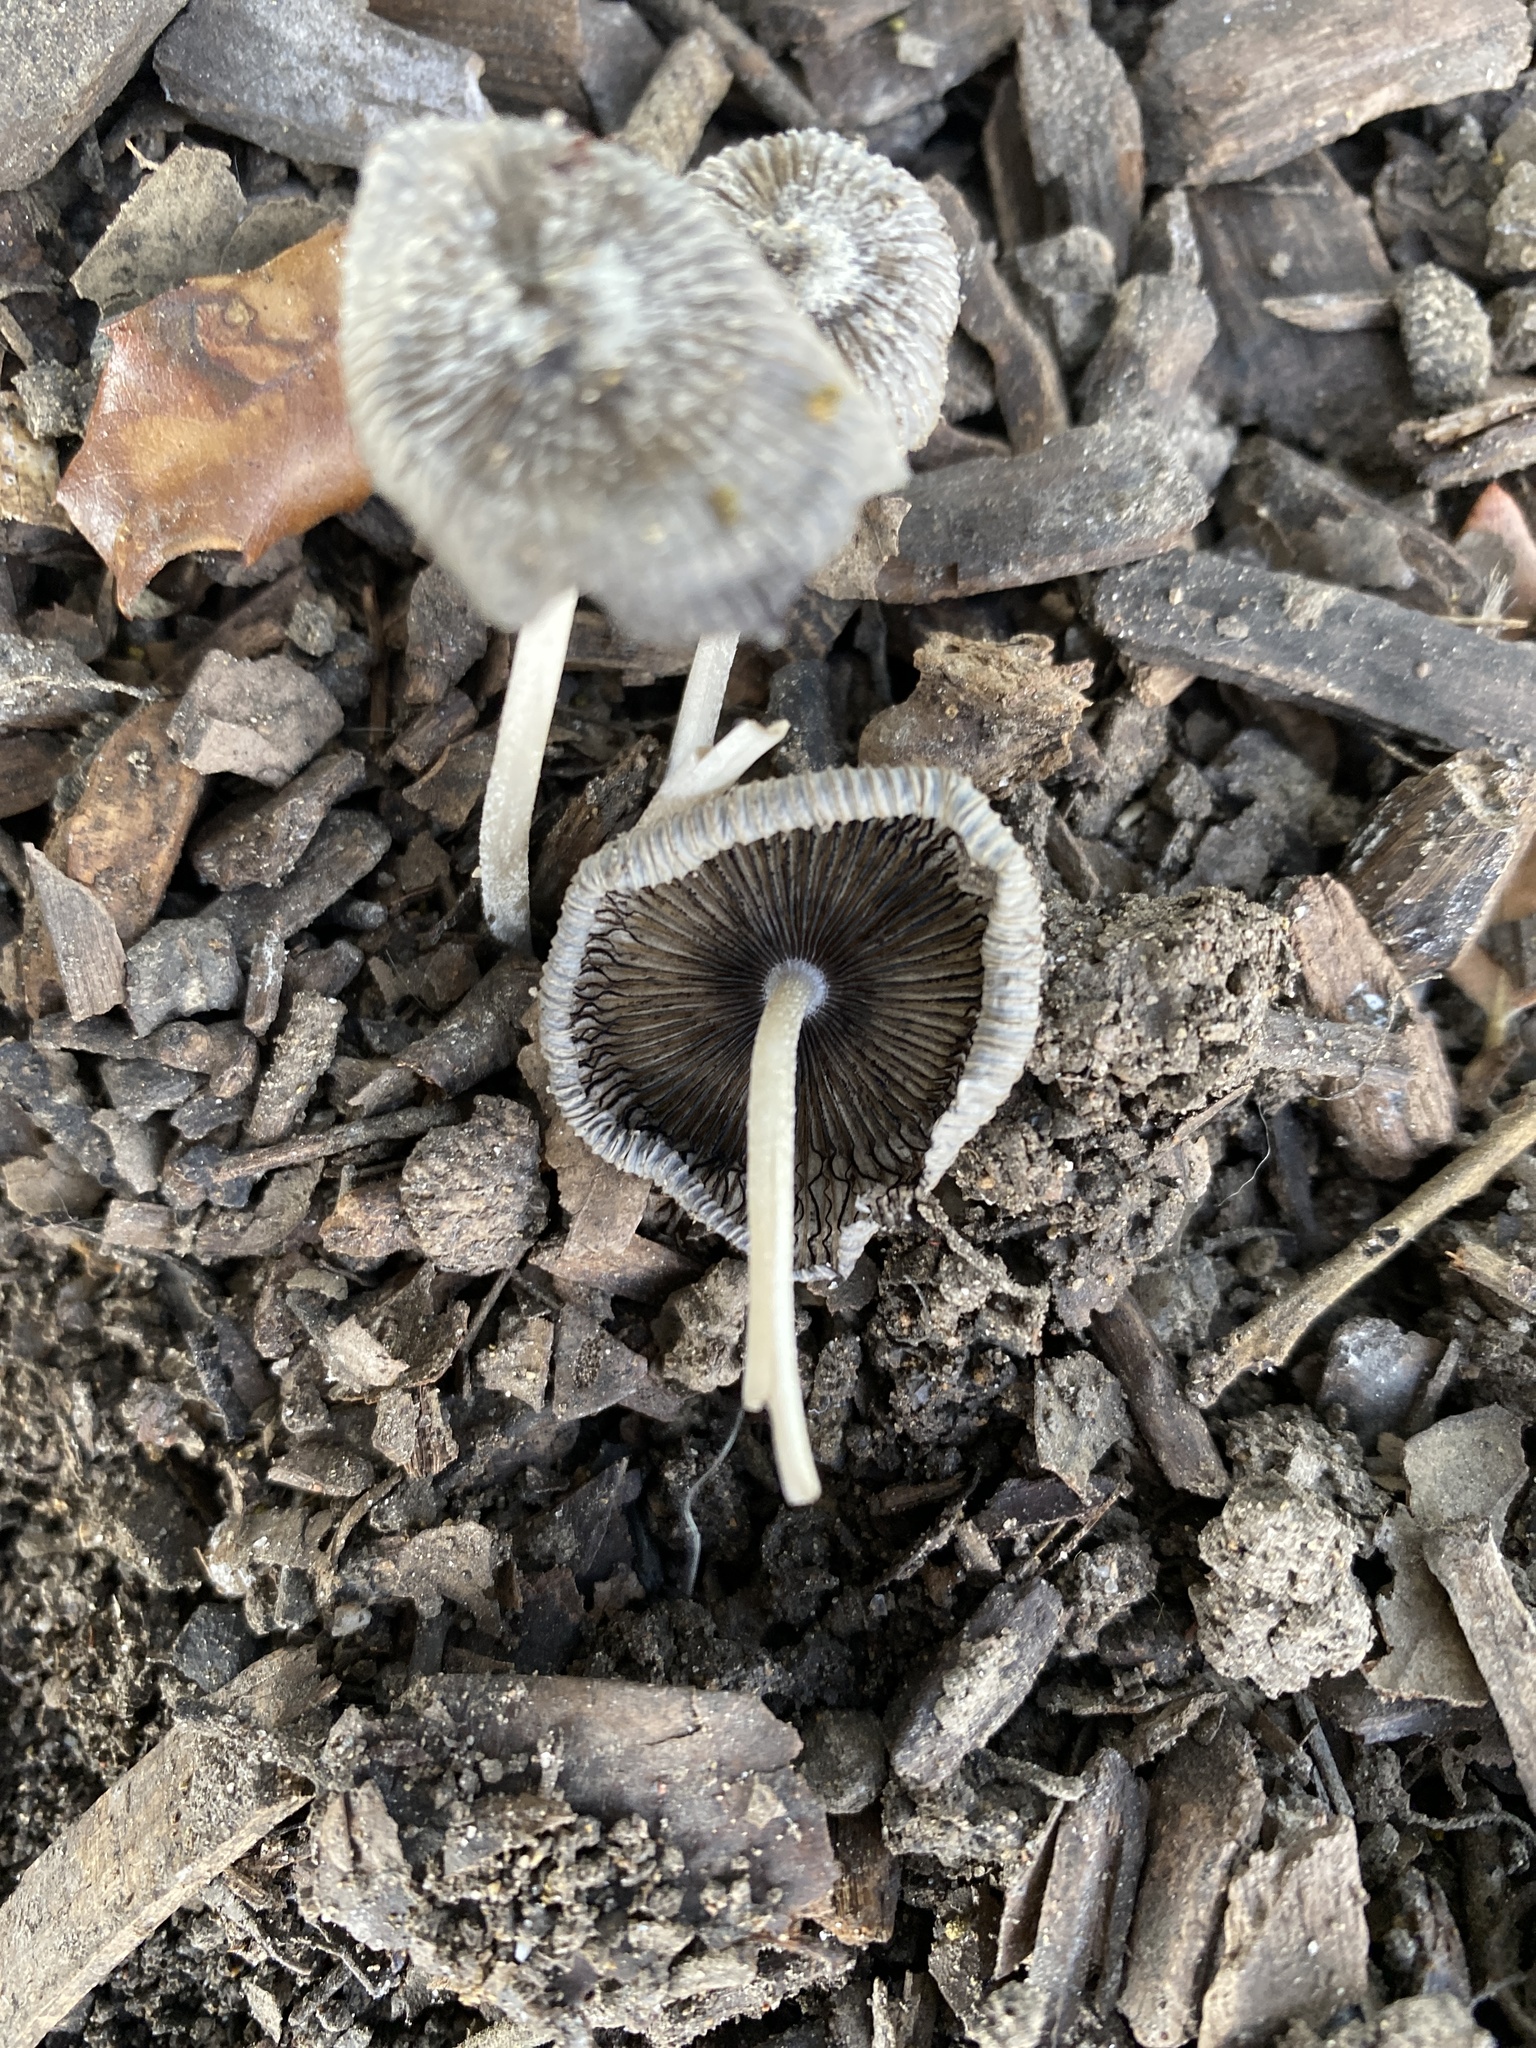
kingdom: Fungi
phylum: Basidiomycota
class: Agaricomycetes
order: Agaricales
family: Psathyrellaceae
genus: Coprinopsis
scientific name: Coprinopsis lagopus
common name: Hare'sfoot inkcap
